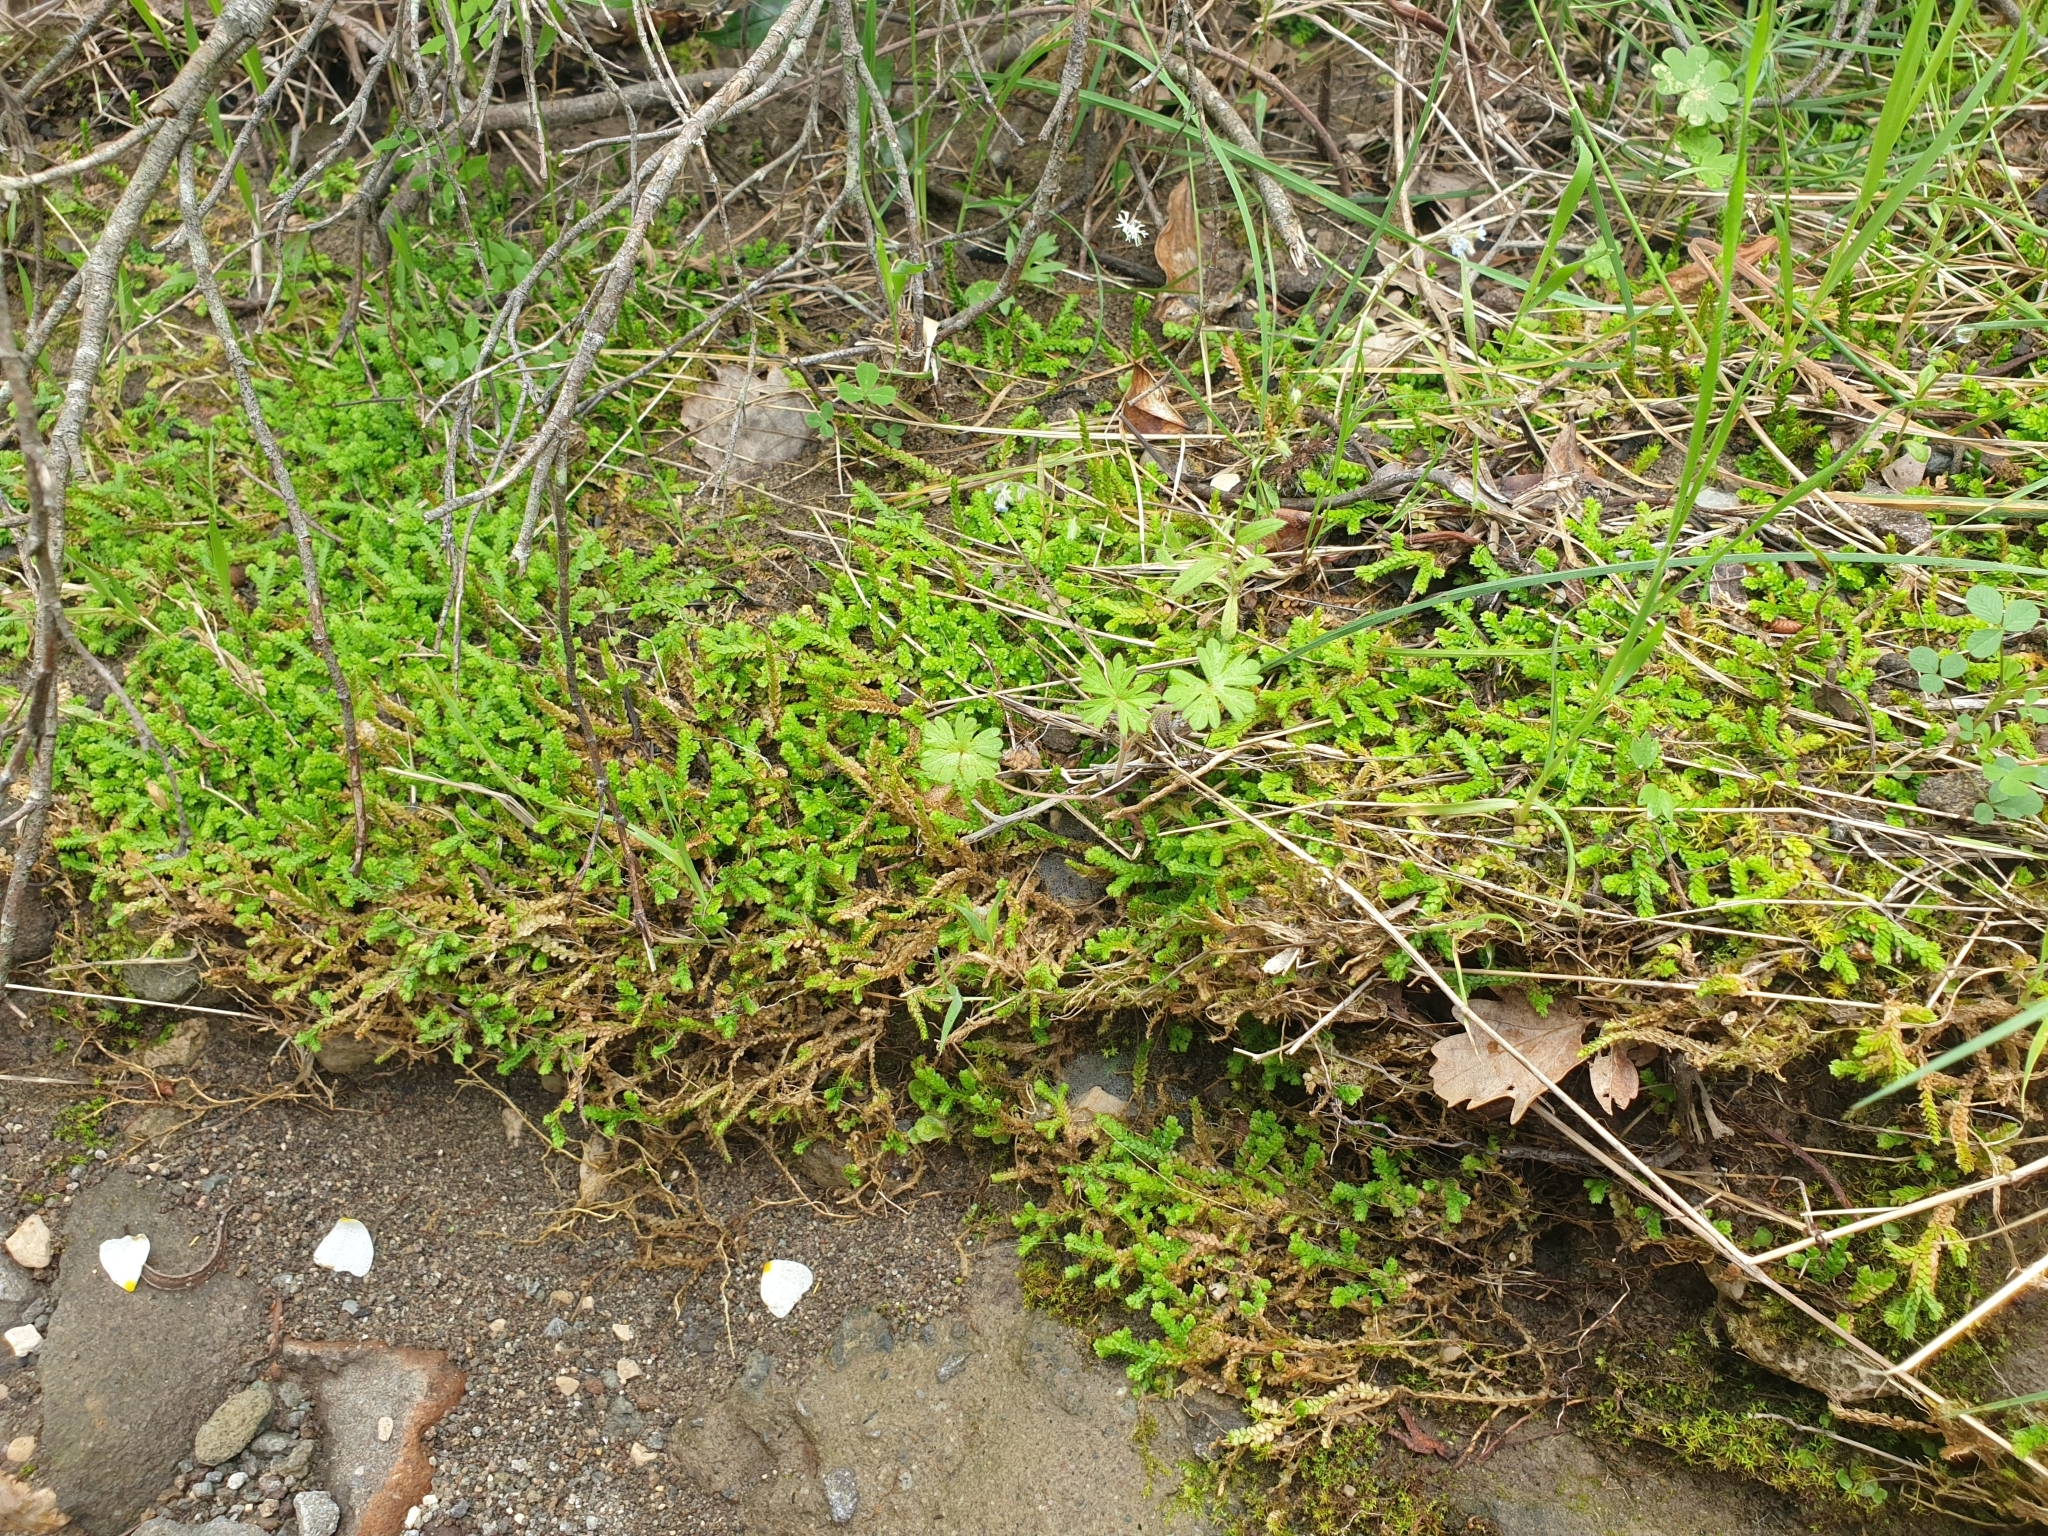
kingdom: Plantae
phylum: Tracheophyta
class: Lycopodiopsida
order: Selaginellales
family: Selaginellaceae
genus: Selaginella
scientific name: Selaginella denticulata
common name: Toothed-leaved clubmoss
